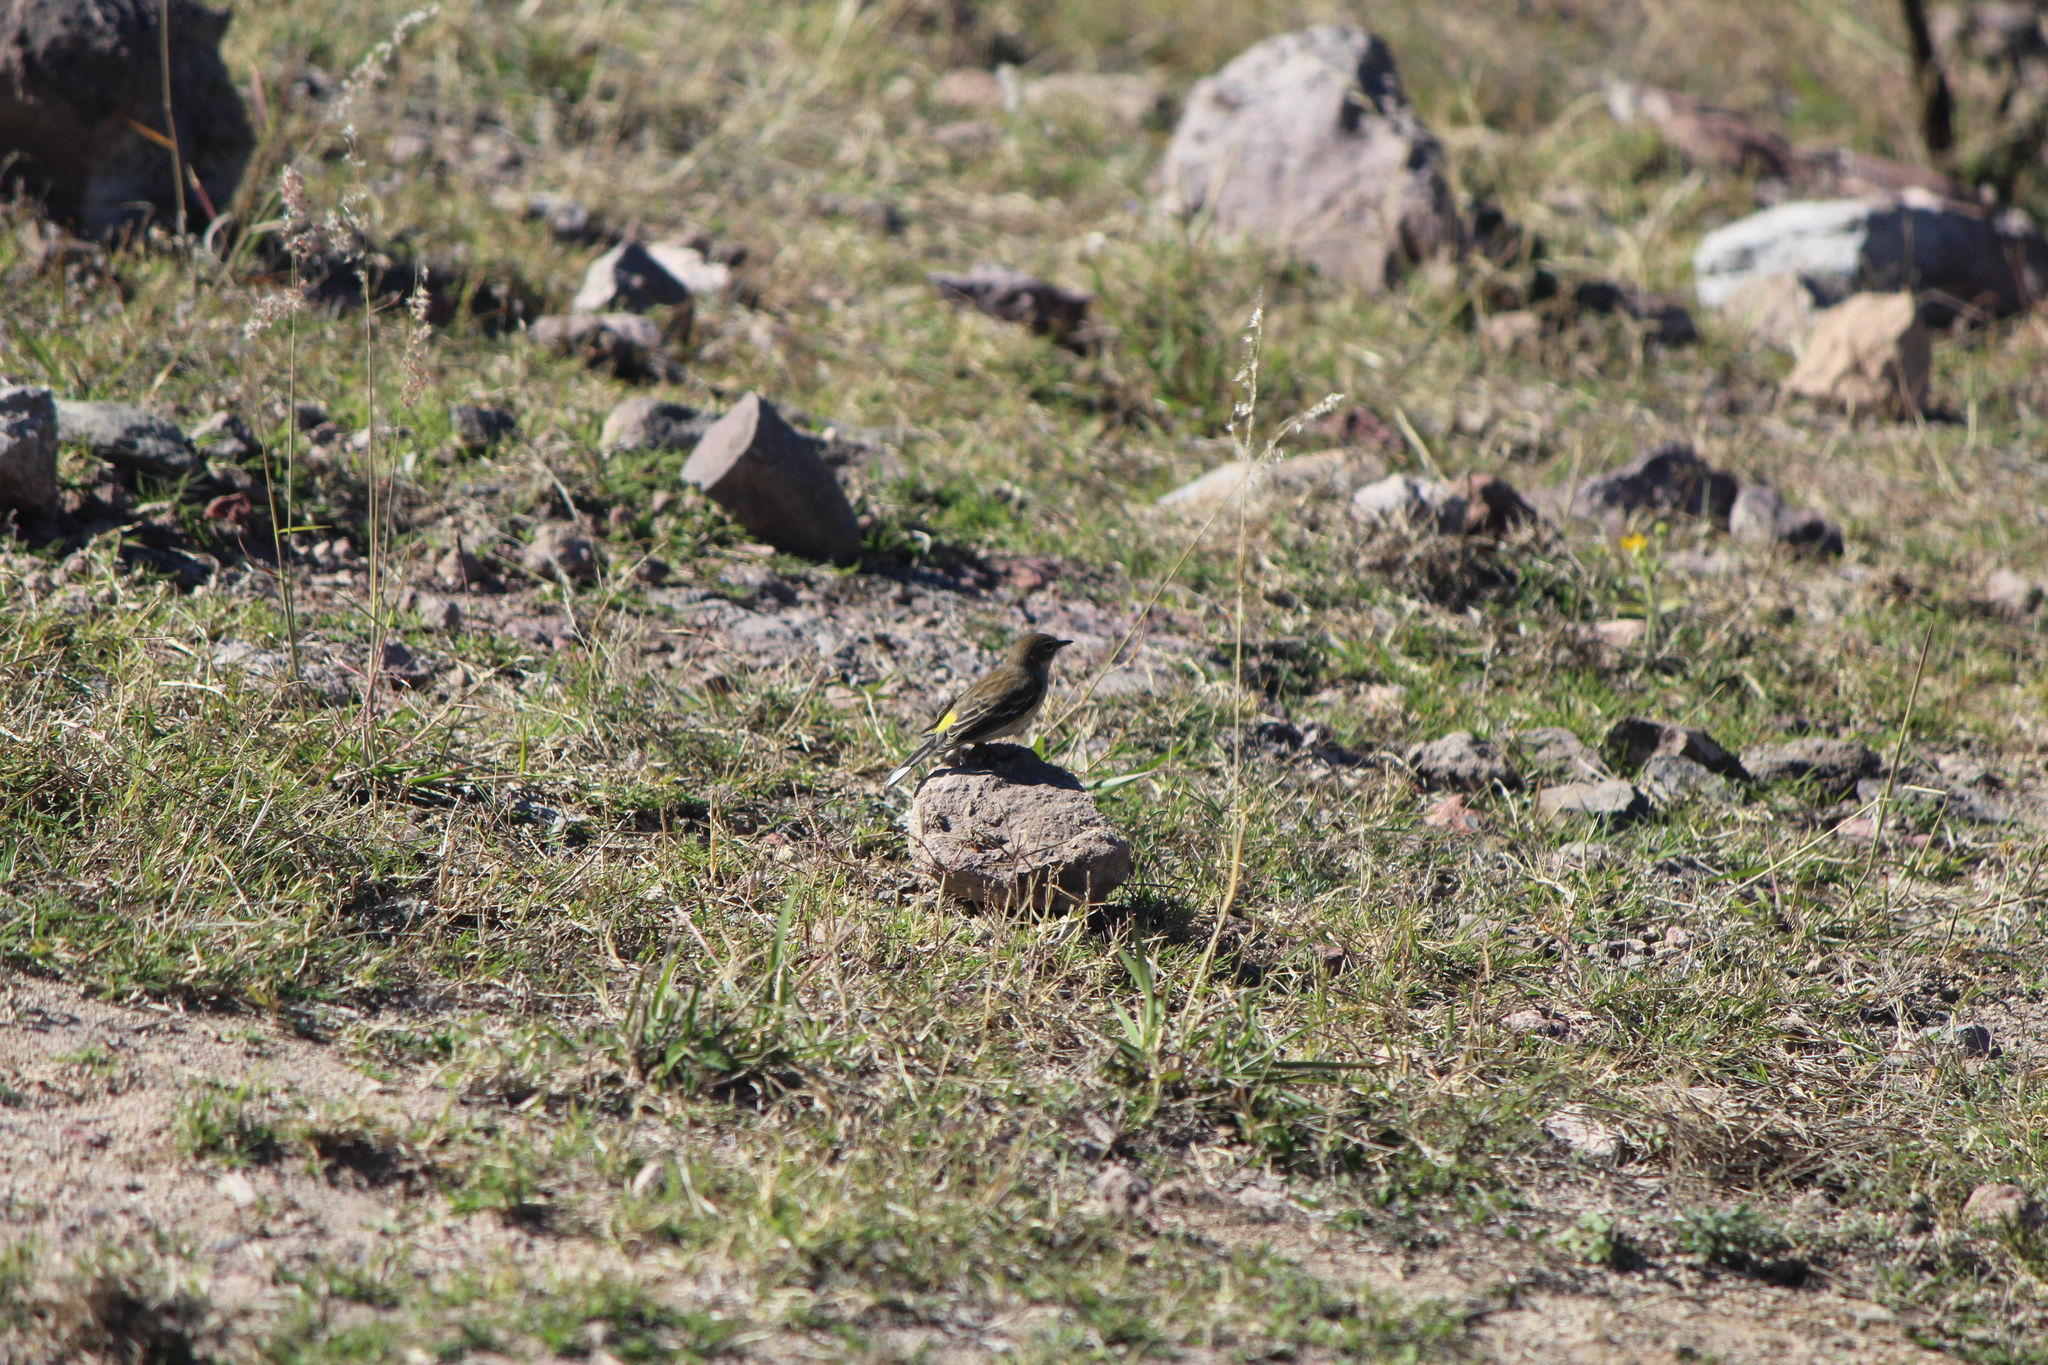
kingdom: Animalia
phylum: Chordata
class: Aves
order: Passeriformes
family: Parulidae
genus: Setophaga
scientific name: Setophaga auduboni
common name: Audubon's warbler
